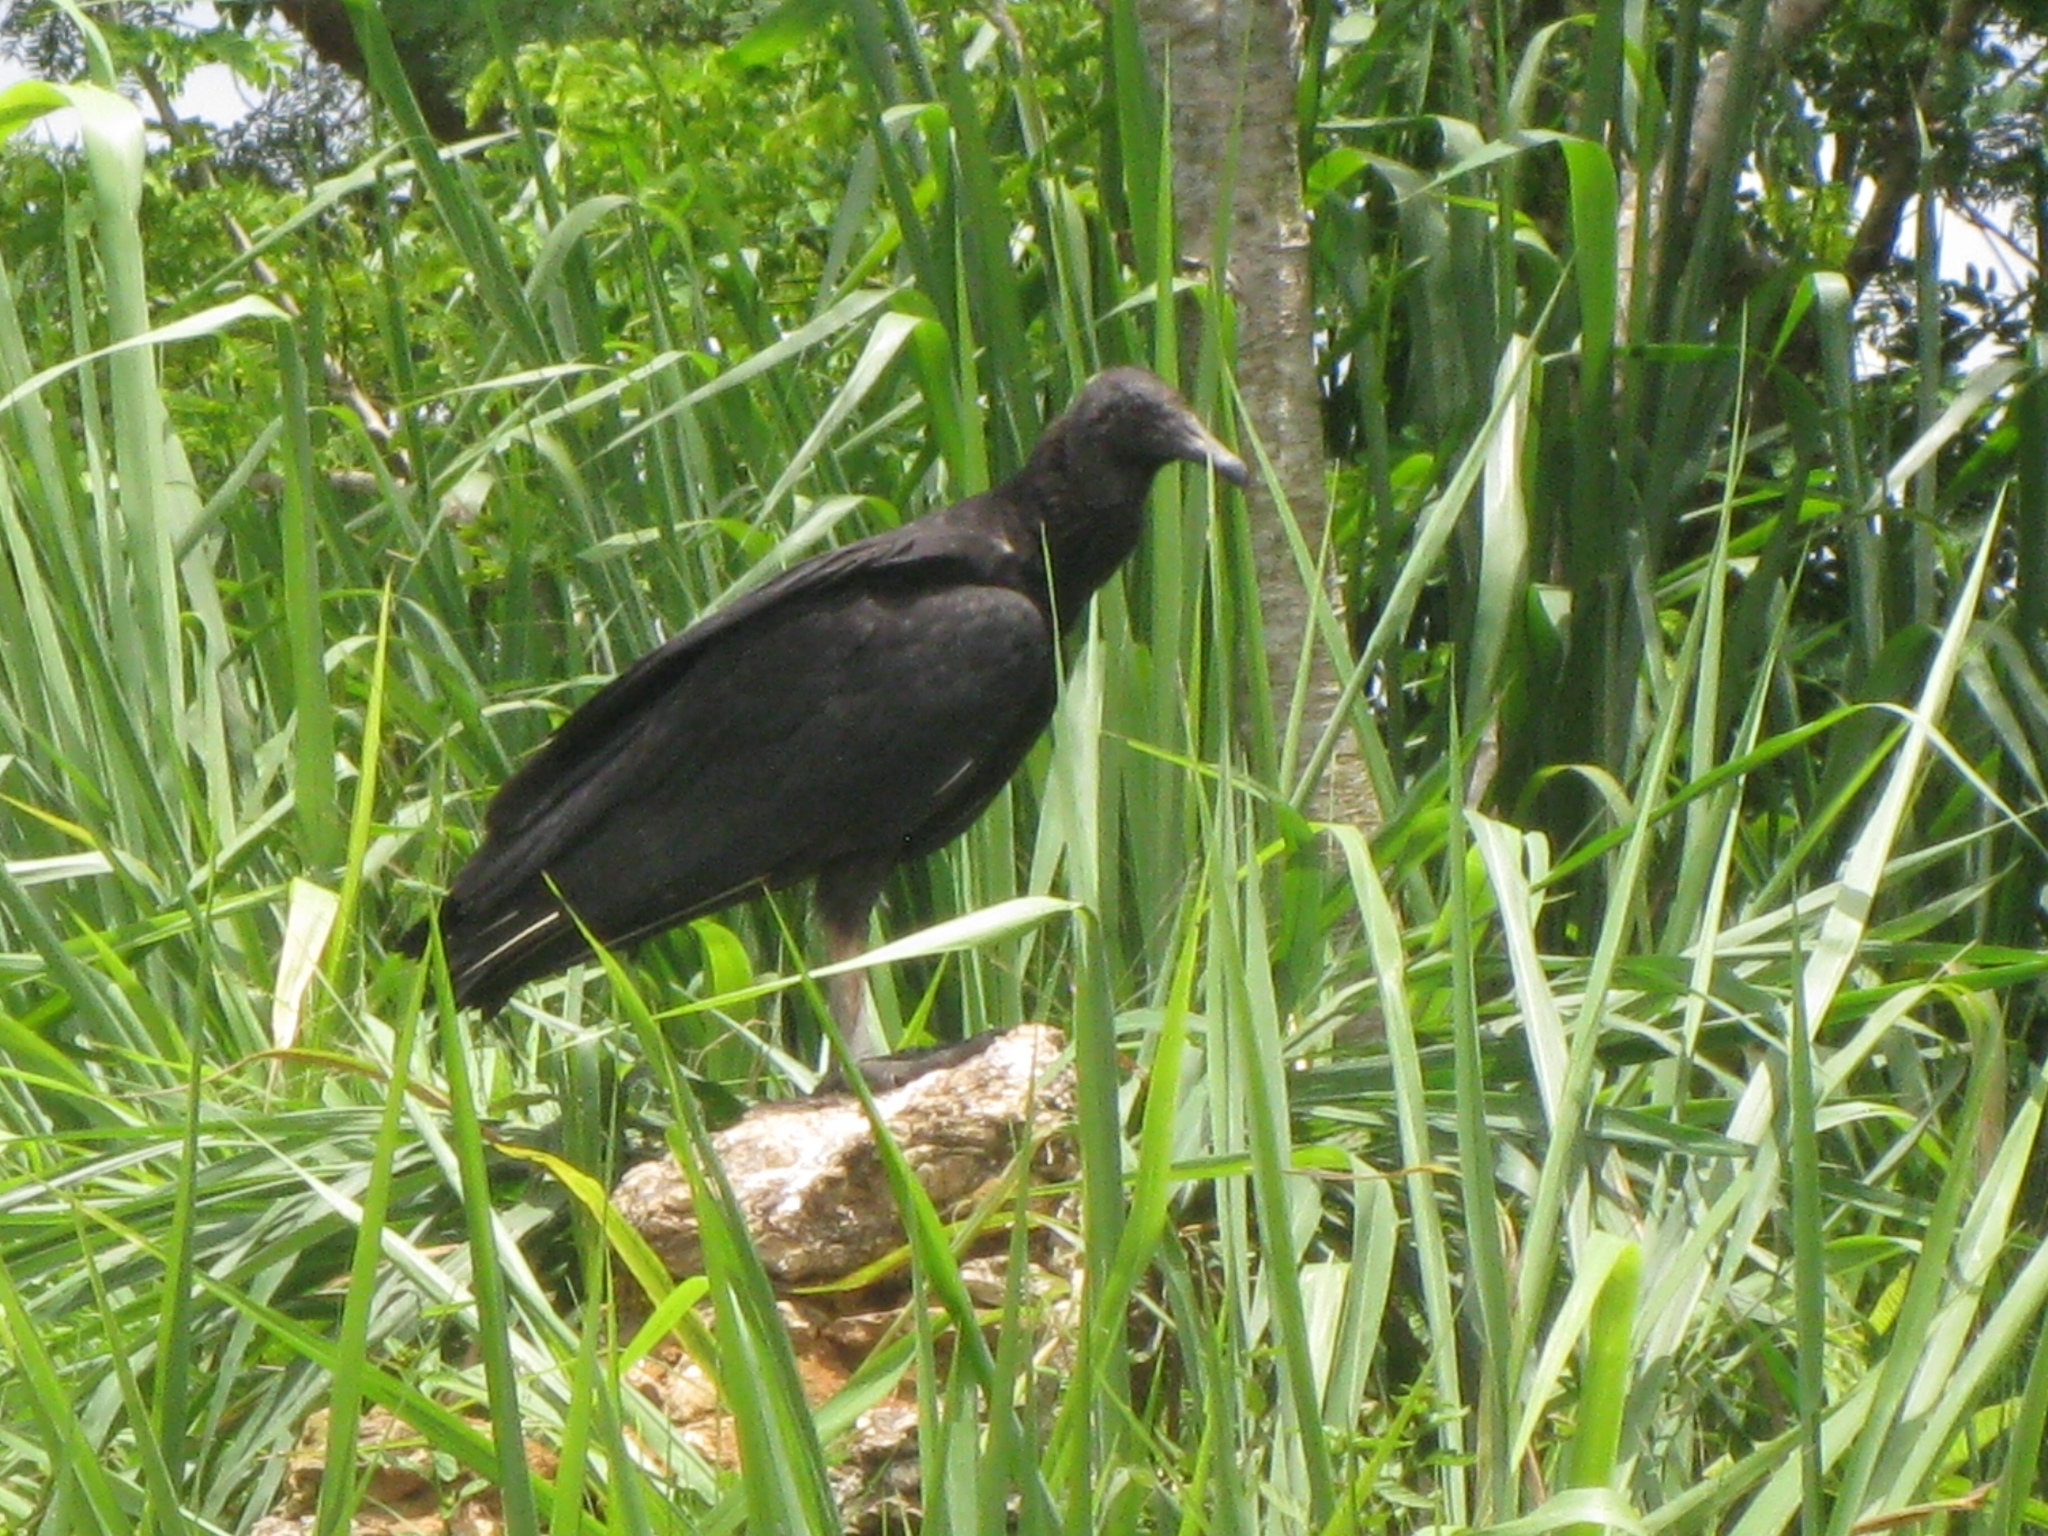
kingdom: Animalia
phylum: Chordata
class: Aves
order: Accipitriformes
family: Cathartidae
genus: Coragyps
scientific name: Coragyps atratus
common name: Black vulture
